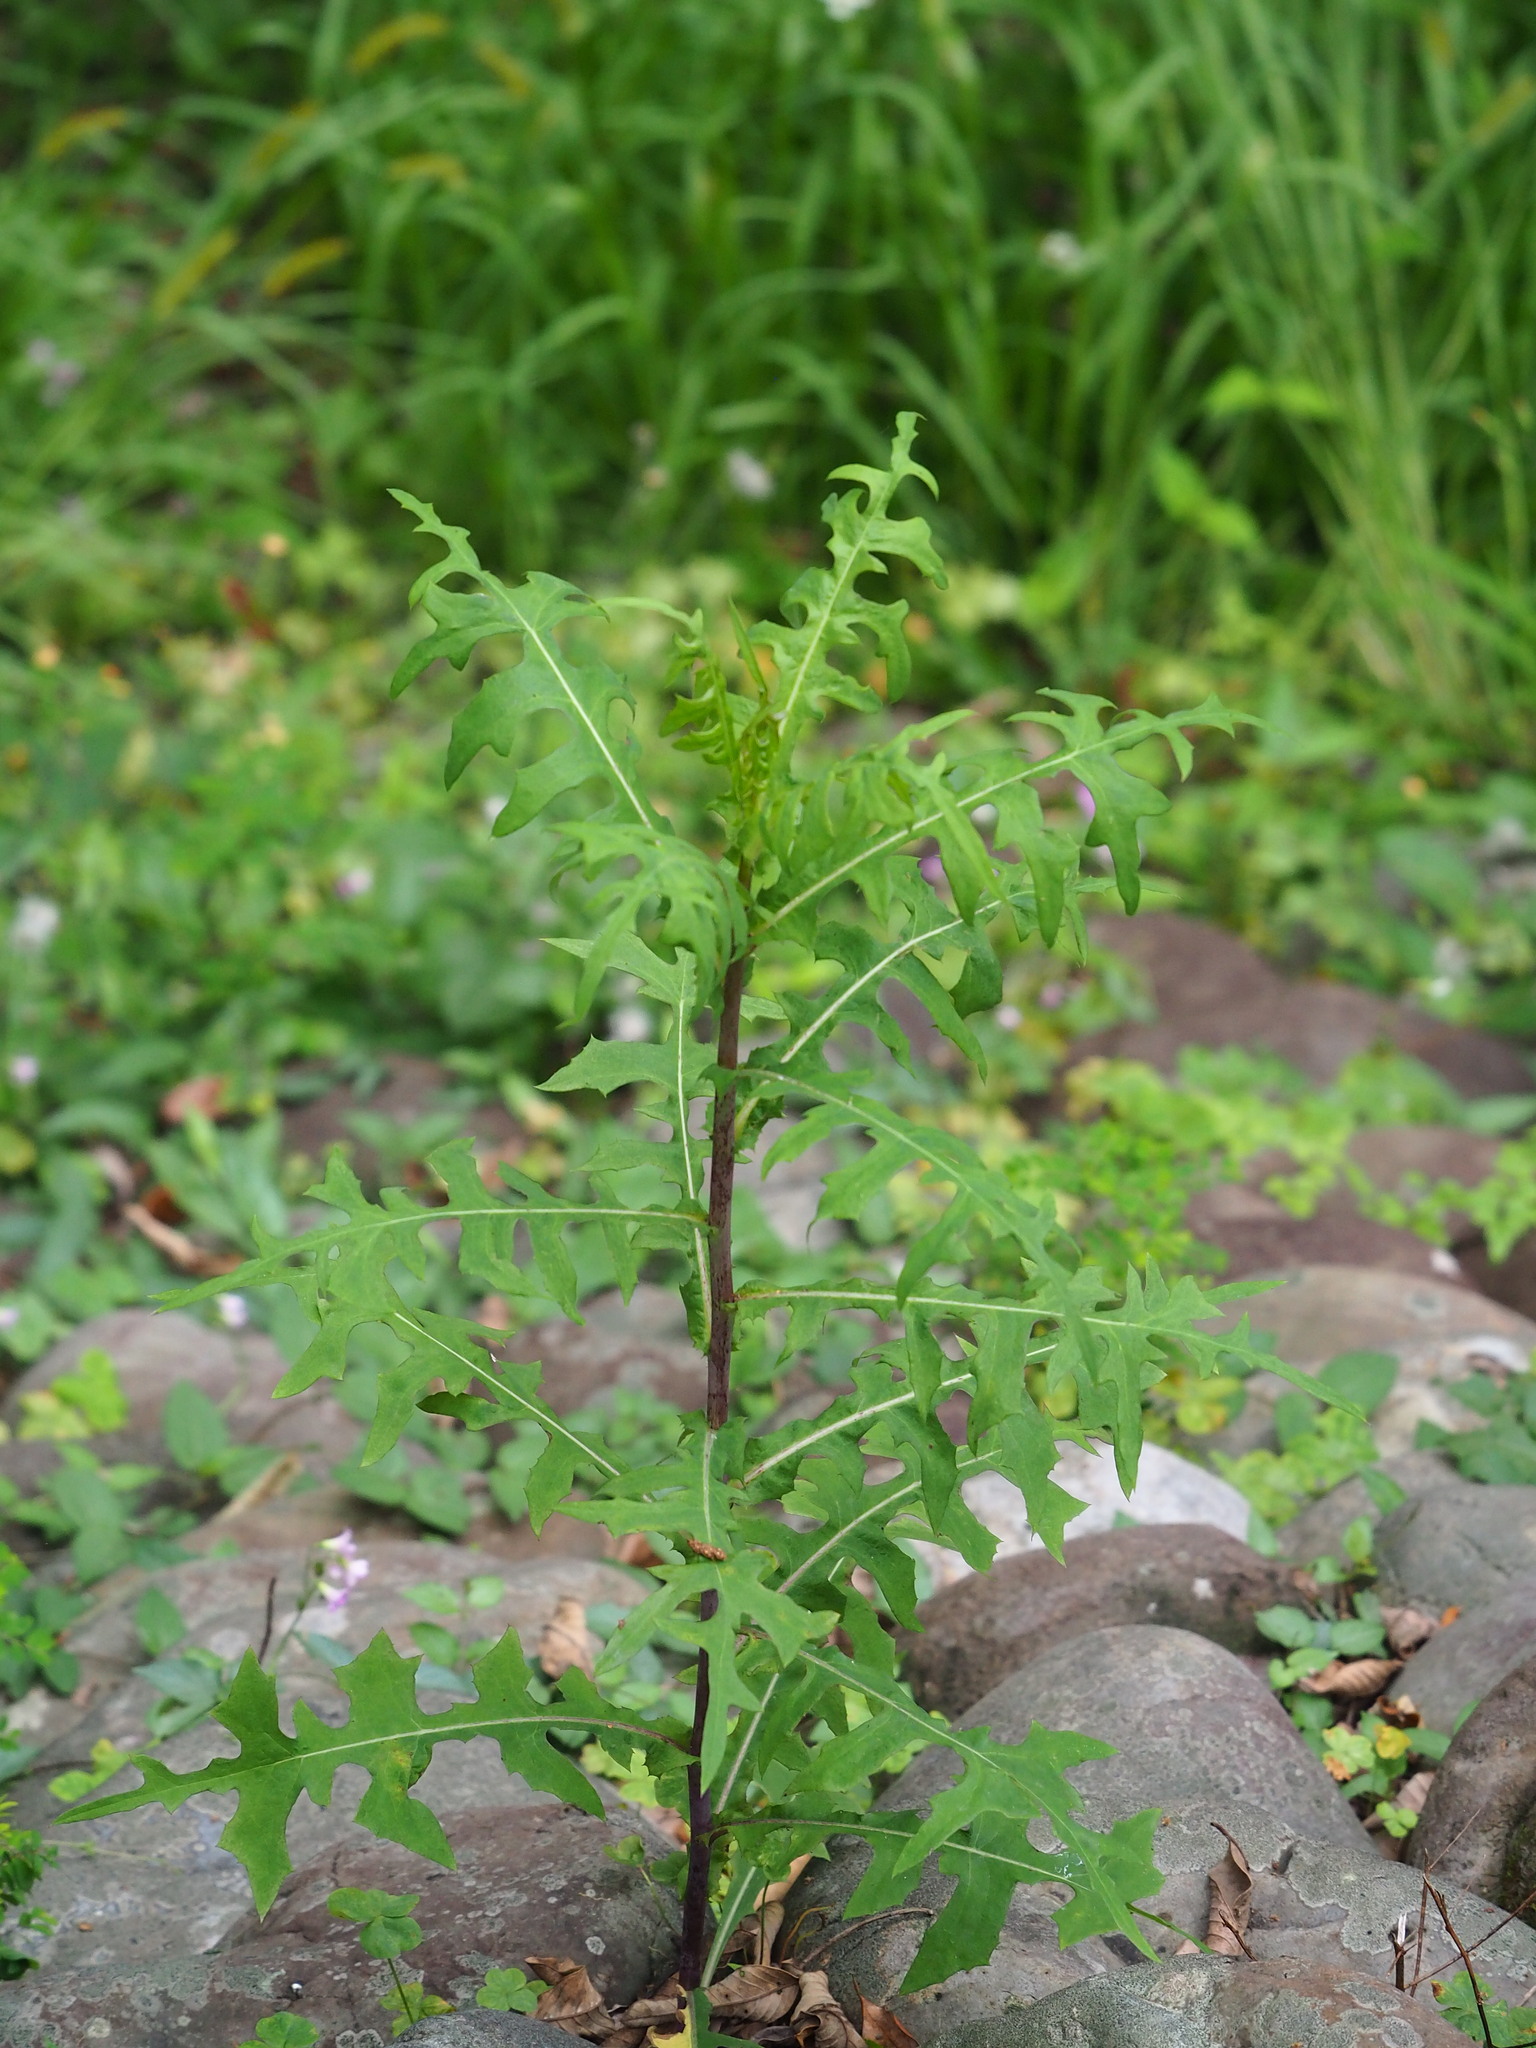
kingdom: Plantae
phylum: Tracheophyta
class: Magnoliopsida
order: Asterales
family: Asteraceae
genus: Lactuca
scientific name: Lactuca indica
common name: Wild lettuce
